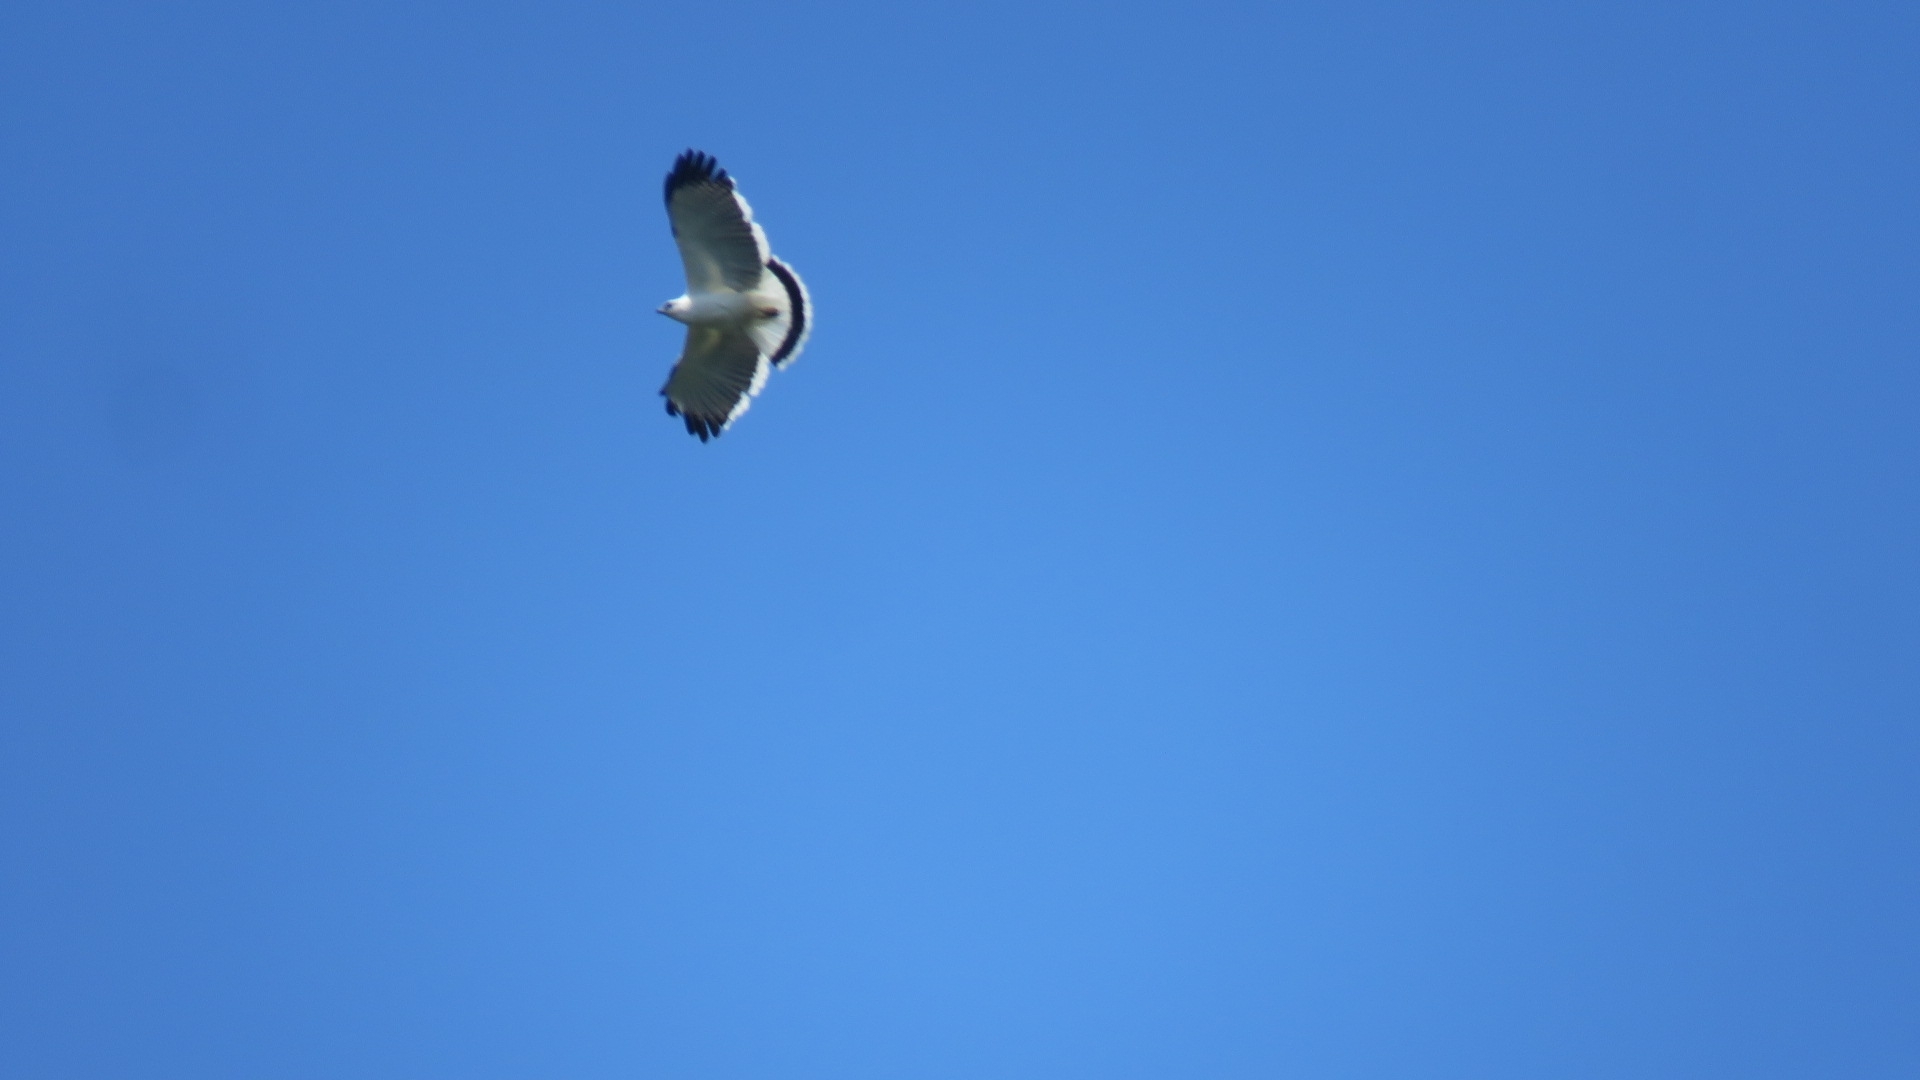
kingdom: Animalia
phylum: Chordata
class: Aves
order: Accipitriformes
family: Accipitridae
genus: Leucopternis
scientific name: Leucopternis albicollis
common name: White hawk
